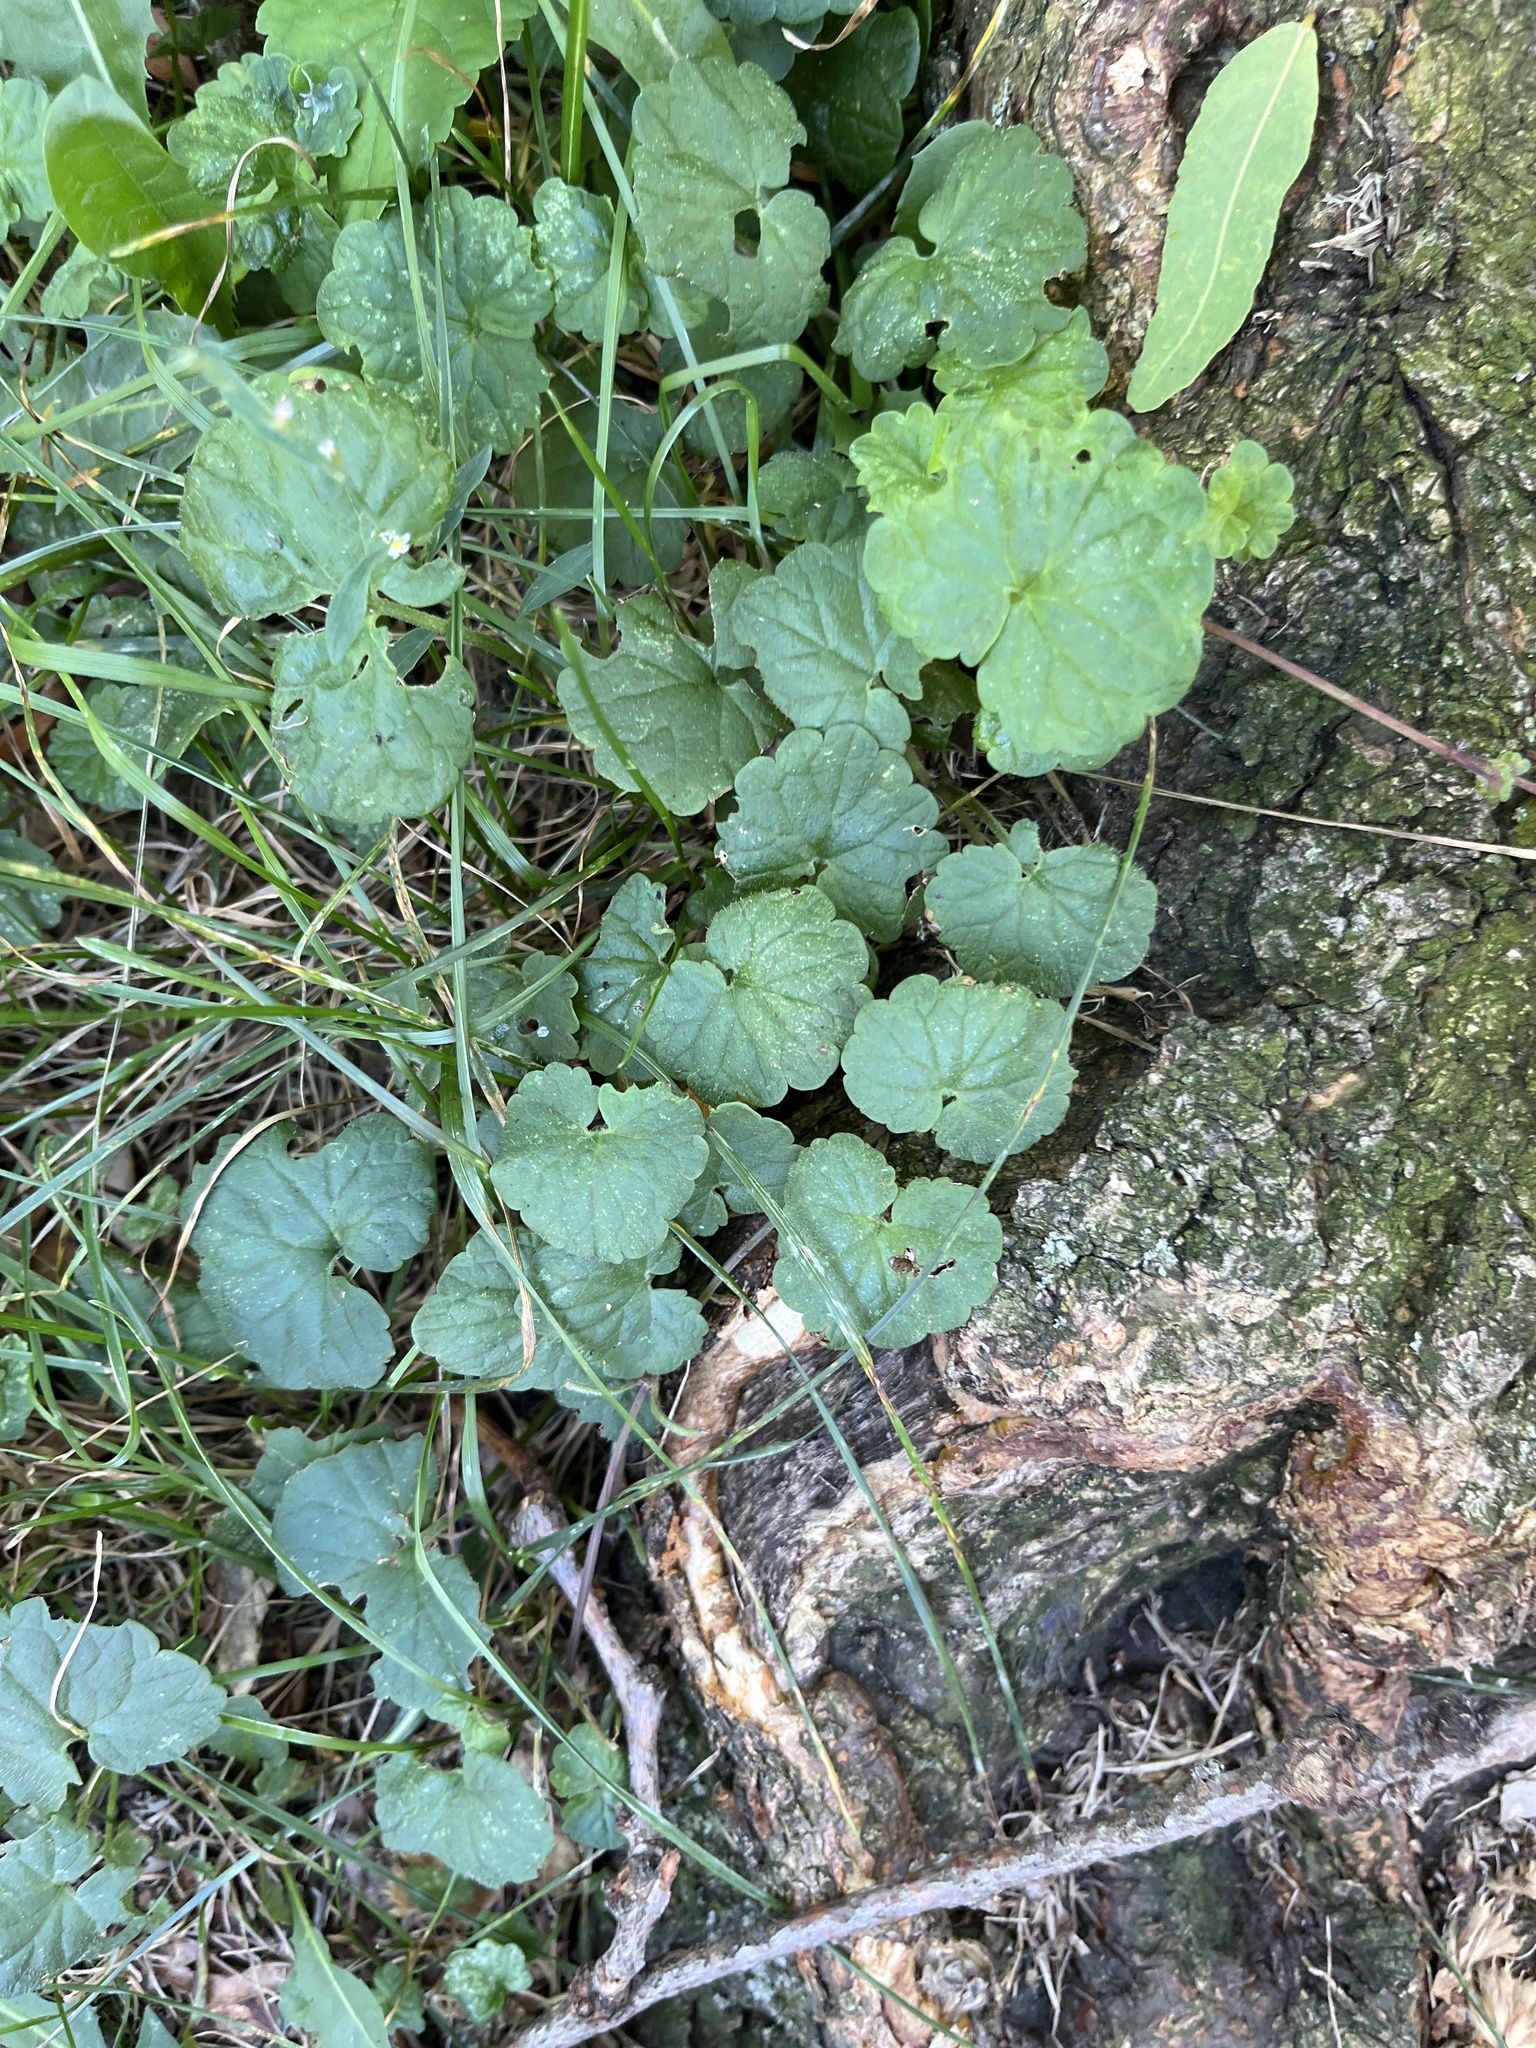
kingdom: Plantae
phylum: Tracheophyta
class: Magnoliopsida
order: Lamiales
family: Lamiaceae
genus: Glechoma
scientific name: Glechoma hederacea
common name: Ground ivy
